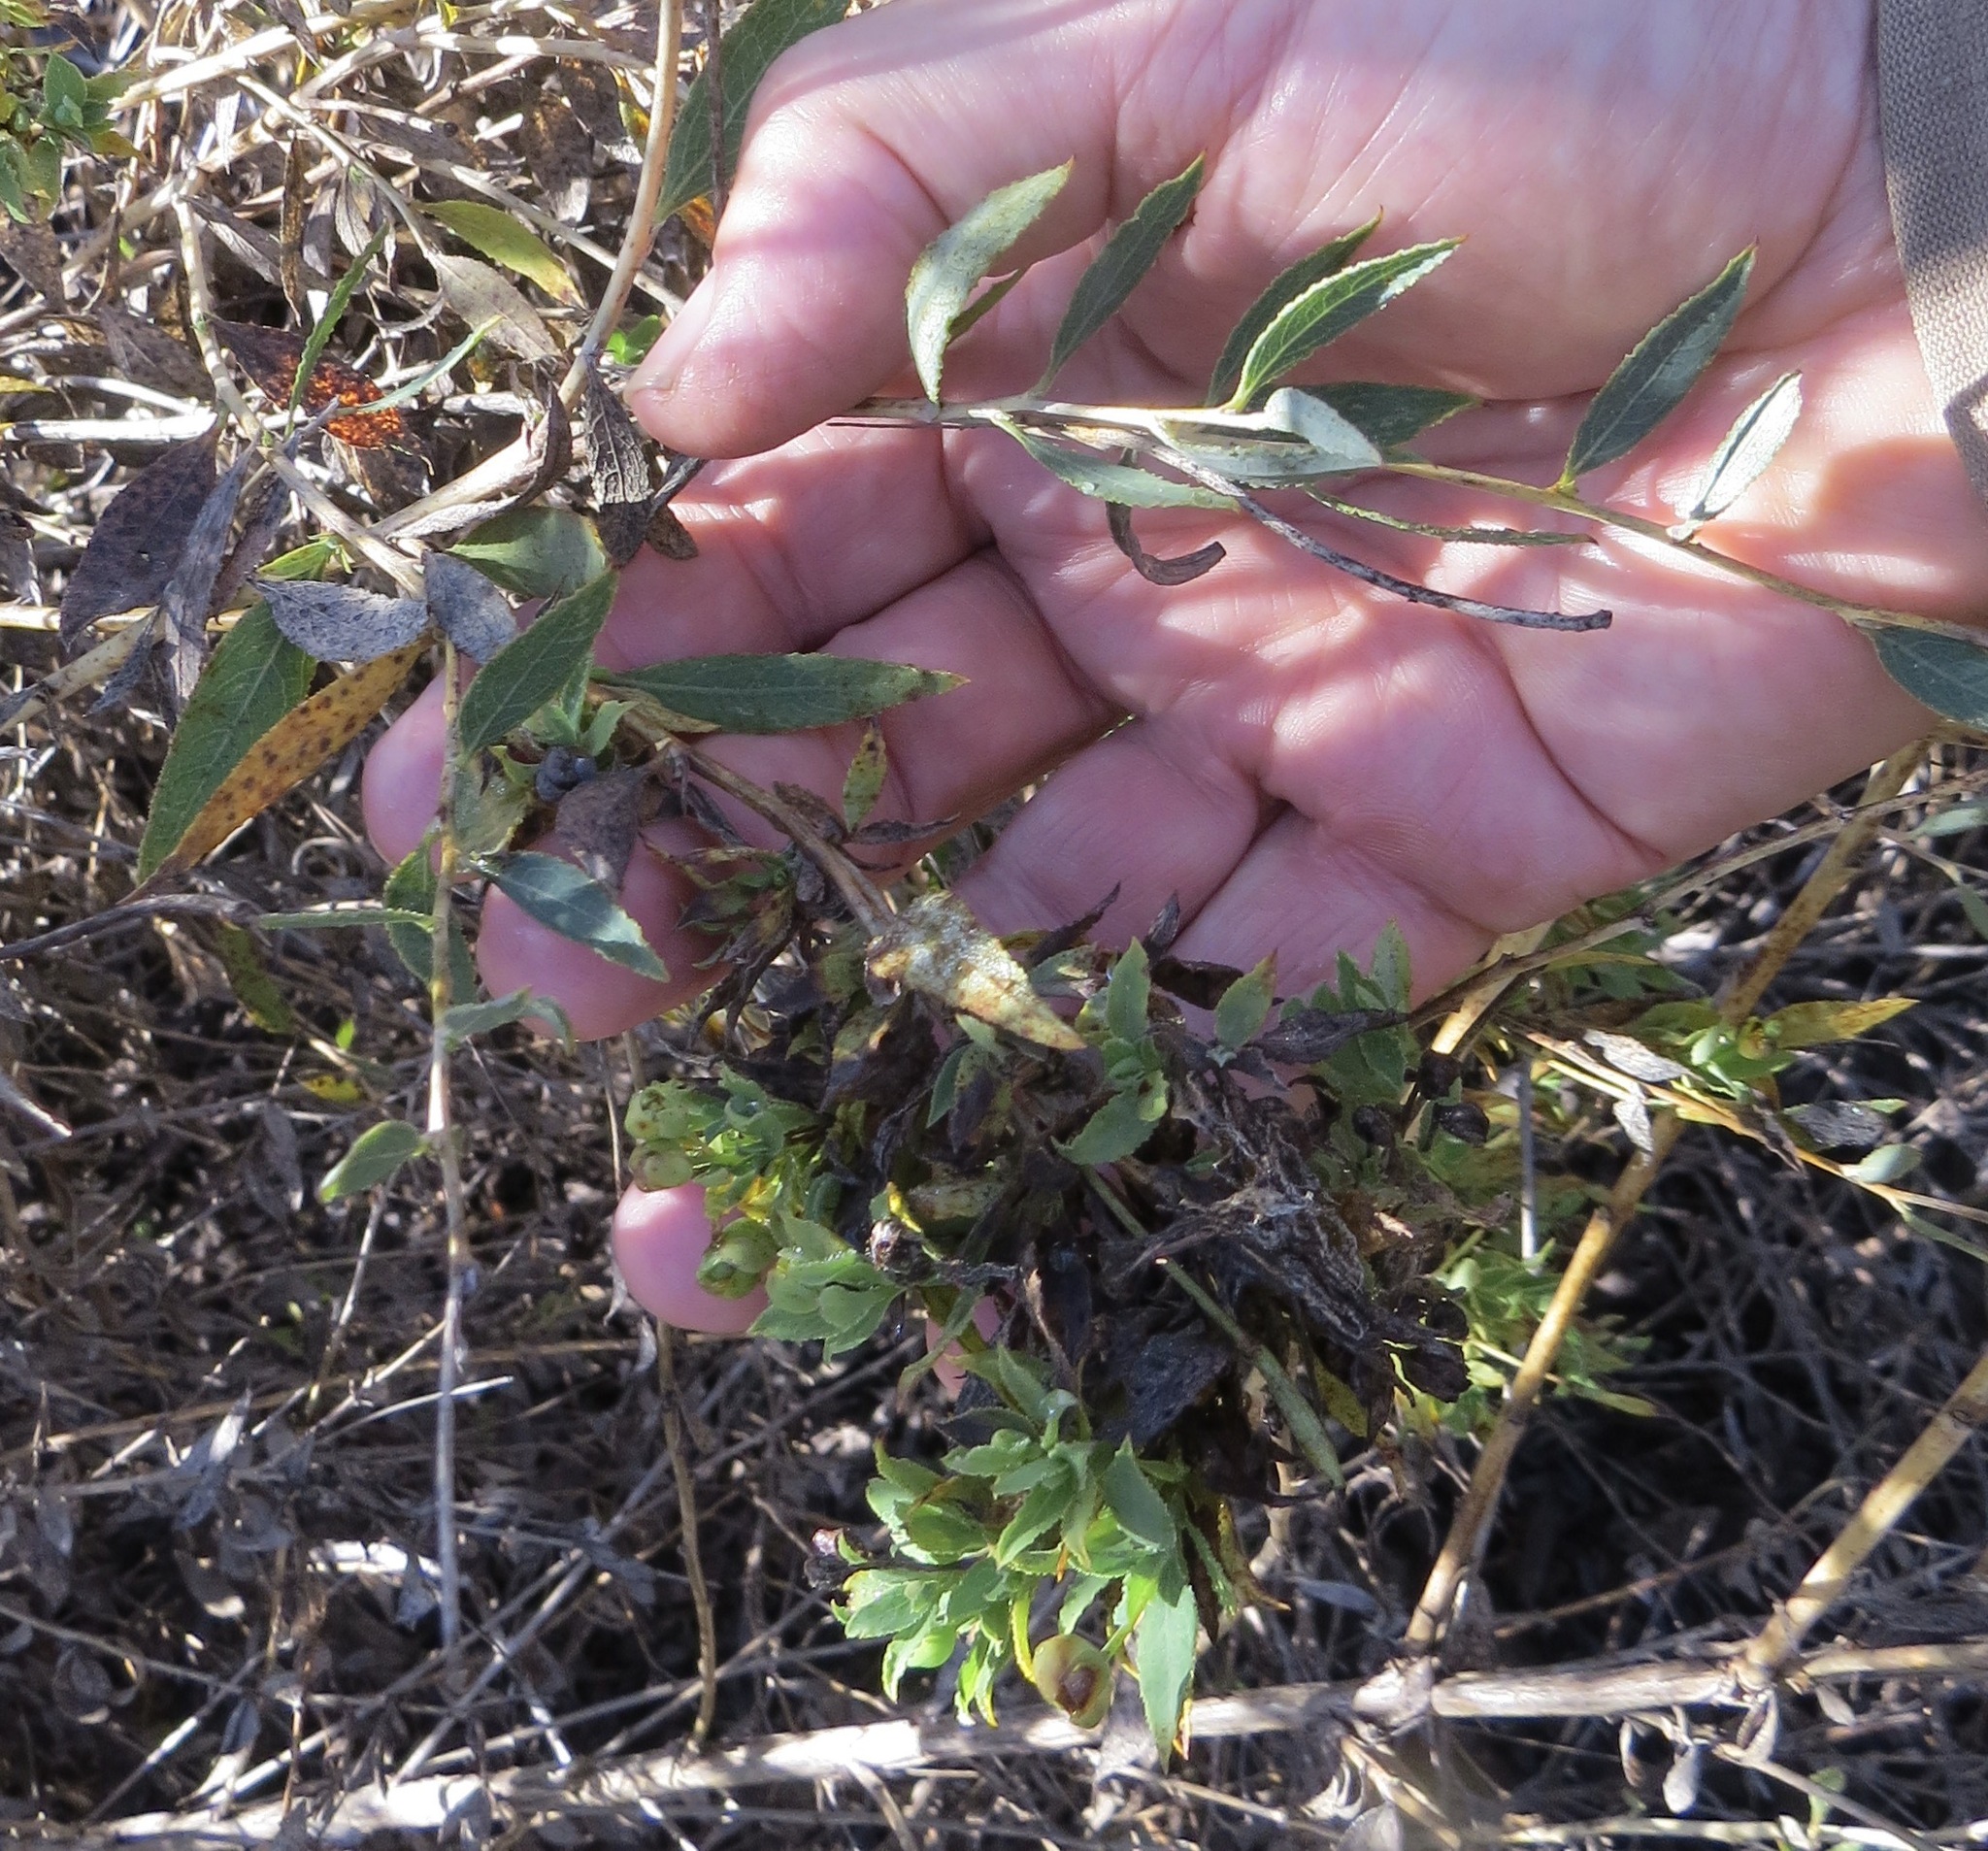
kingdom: Plantae
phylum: Tracheophyta
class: Magnoliopsida
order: Ranunculales
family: Papaveraceae
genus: Dendromecon
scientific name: Dendromecon rigida
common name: Tree poppy
